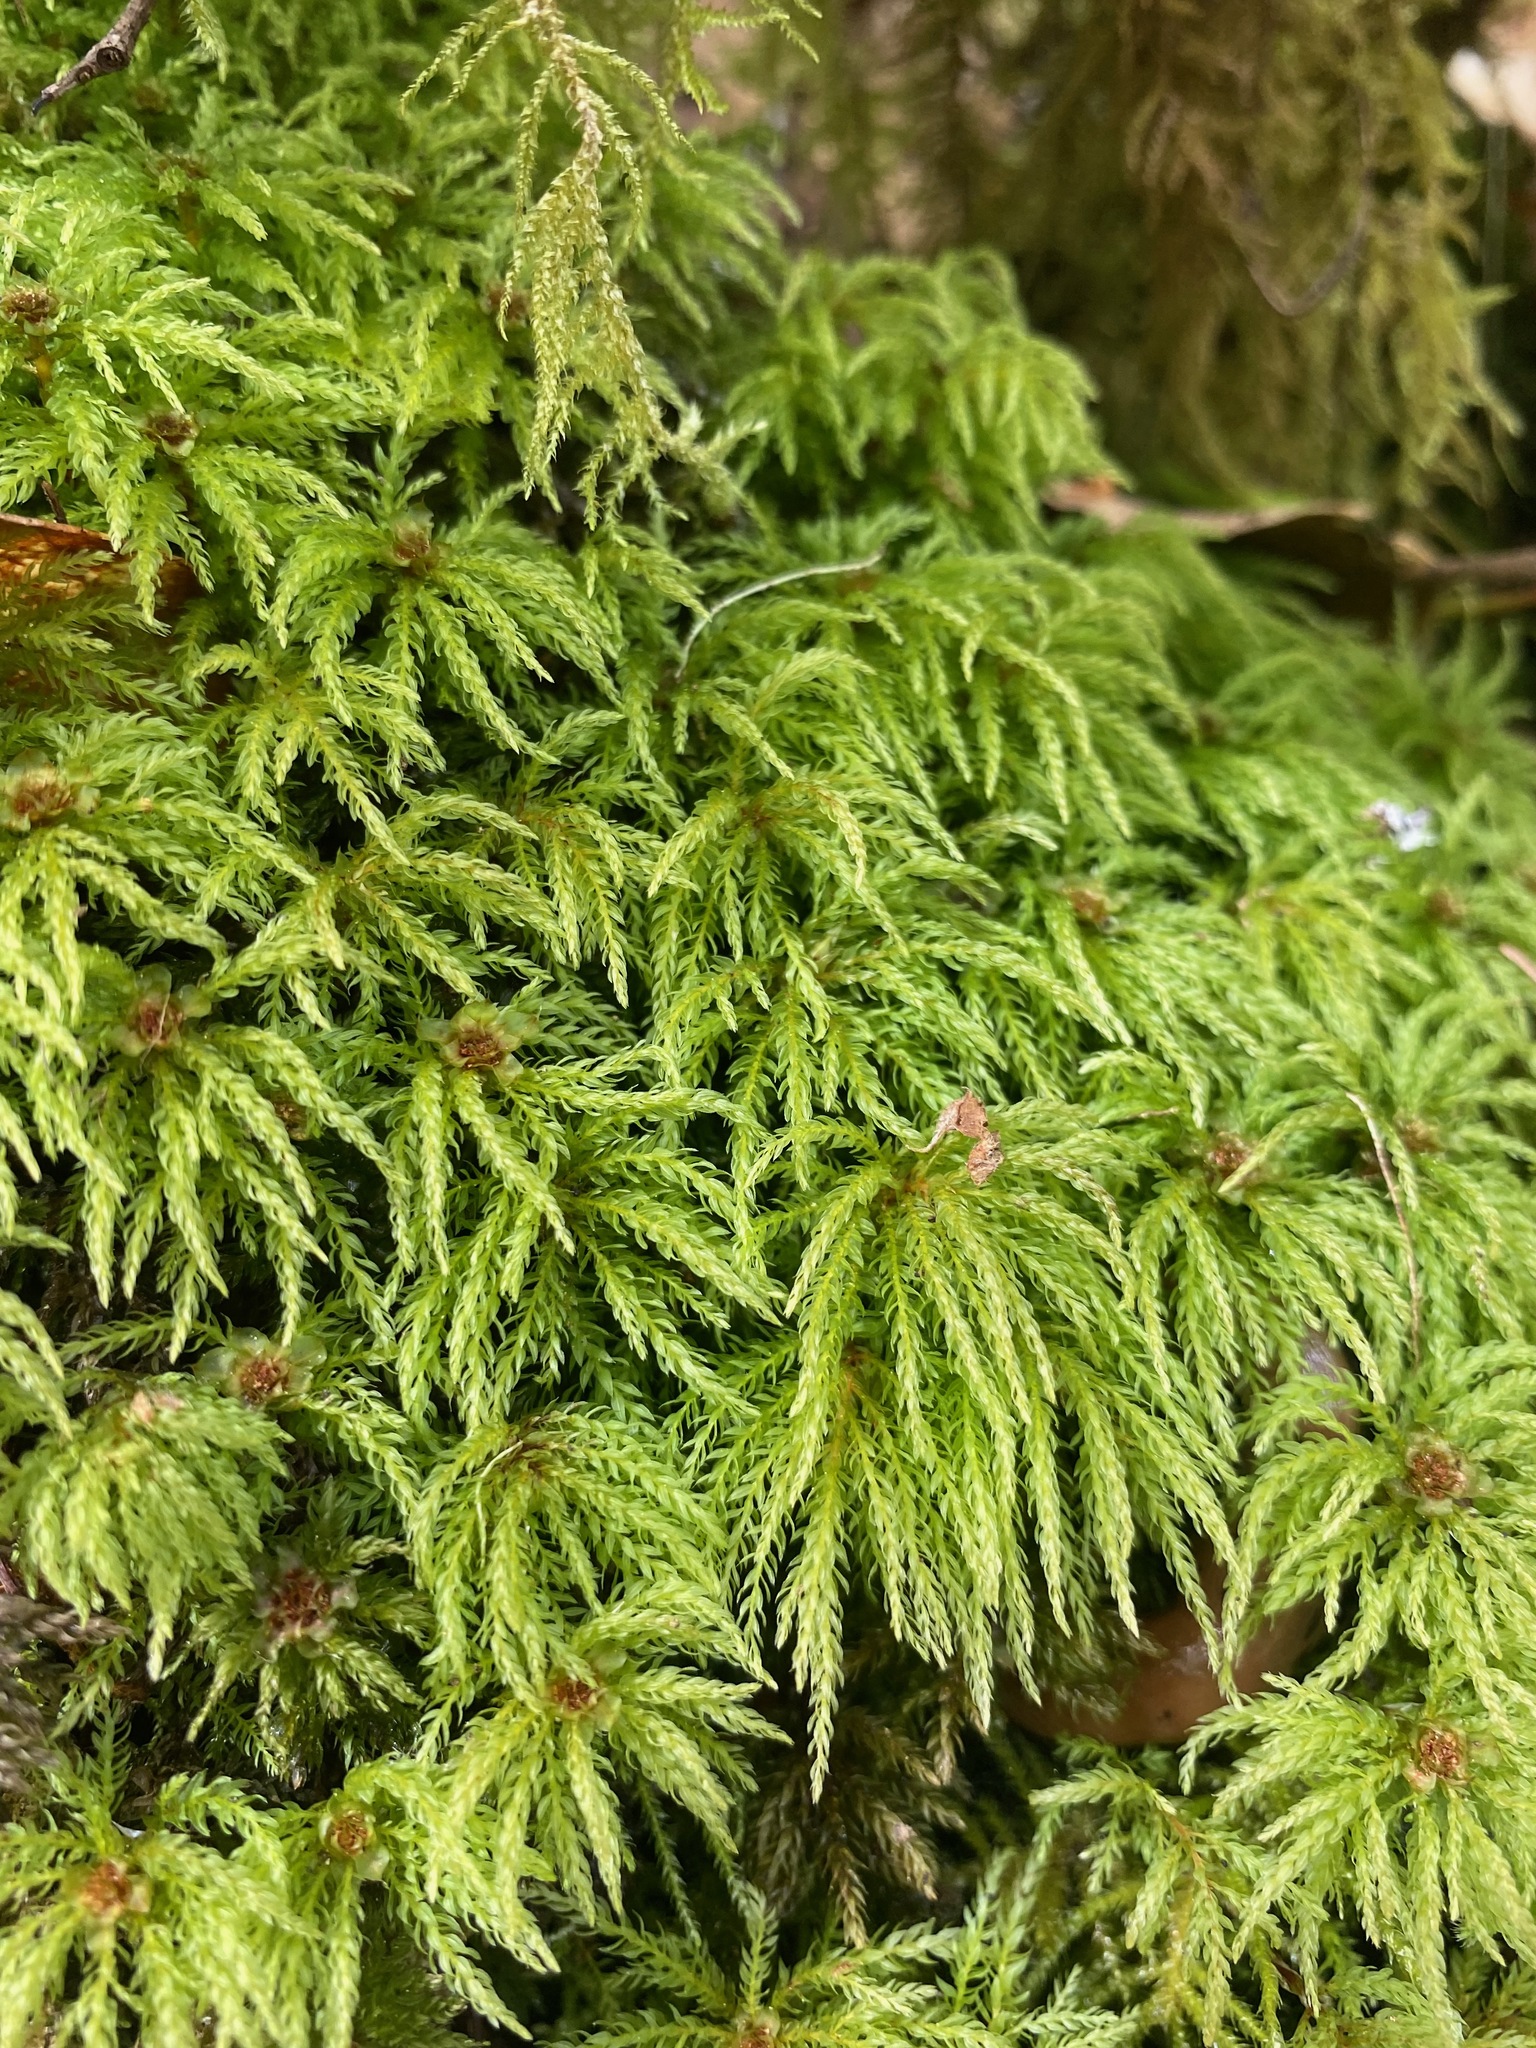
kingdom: Plantae
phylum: Bryophyta
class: Bryopsida
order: Bryales
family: Mniaceae
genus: Leucolepis
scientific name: Leucolepis acanthoneura
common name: Leucolepis umbrella moss
